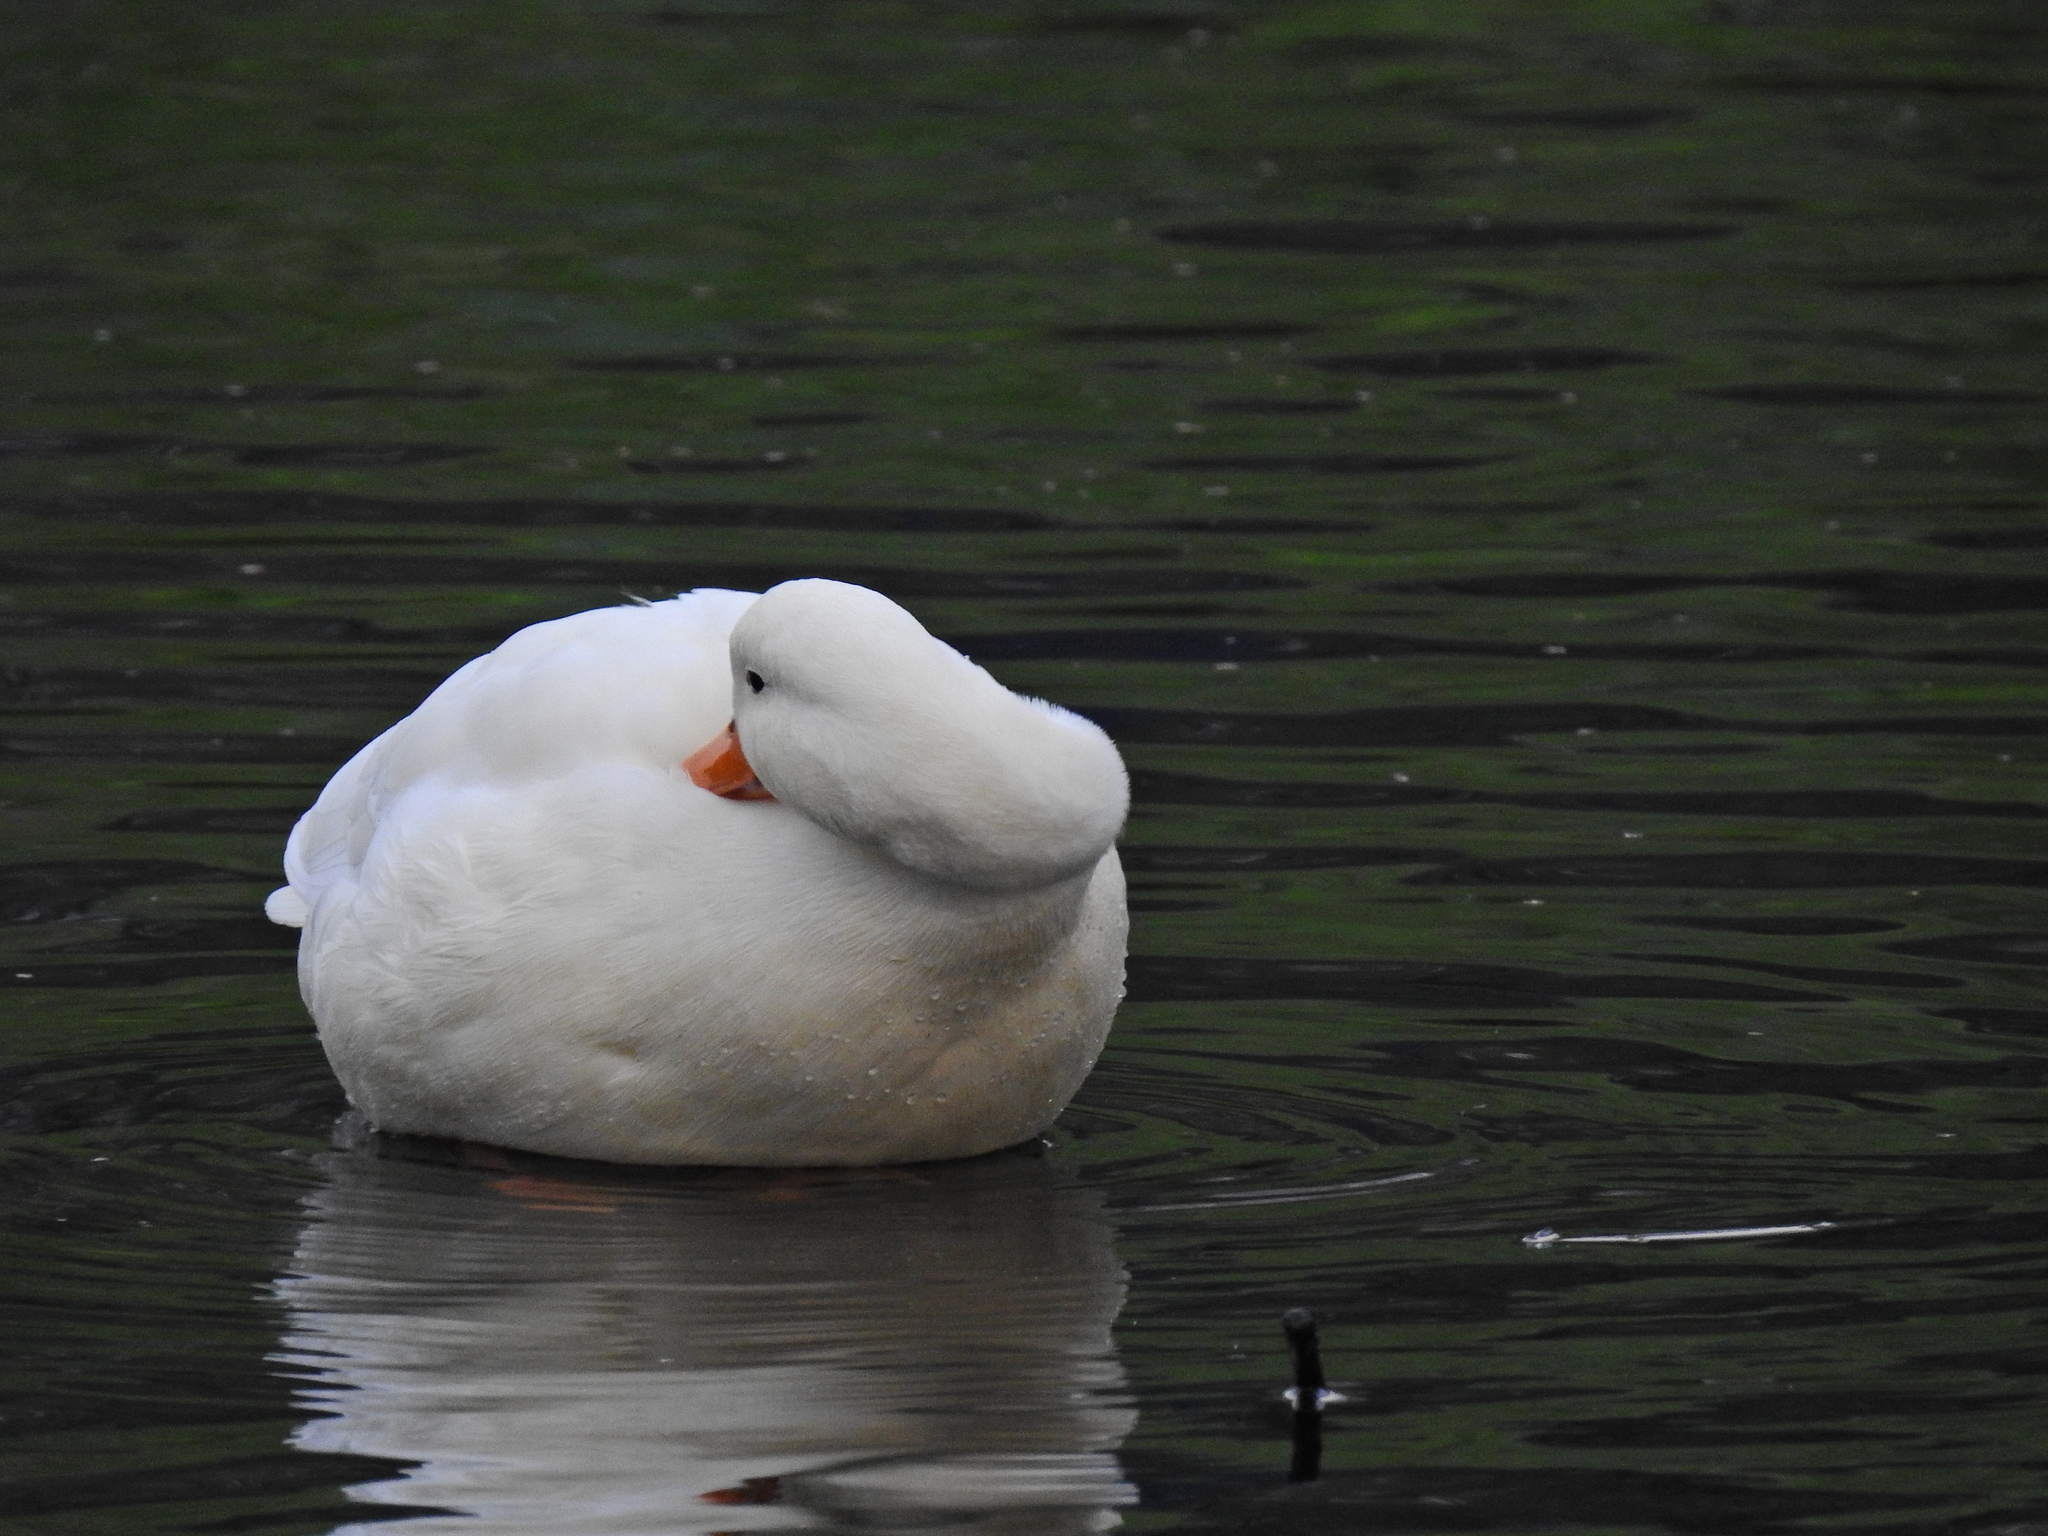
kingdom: Animalia
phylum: Chordata
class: Aves
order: Anseriformes
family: Anatidae
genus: Anas
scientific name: Anas platyrhynchos
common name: Mallard
